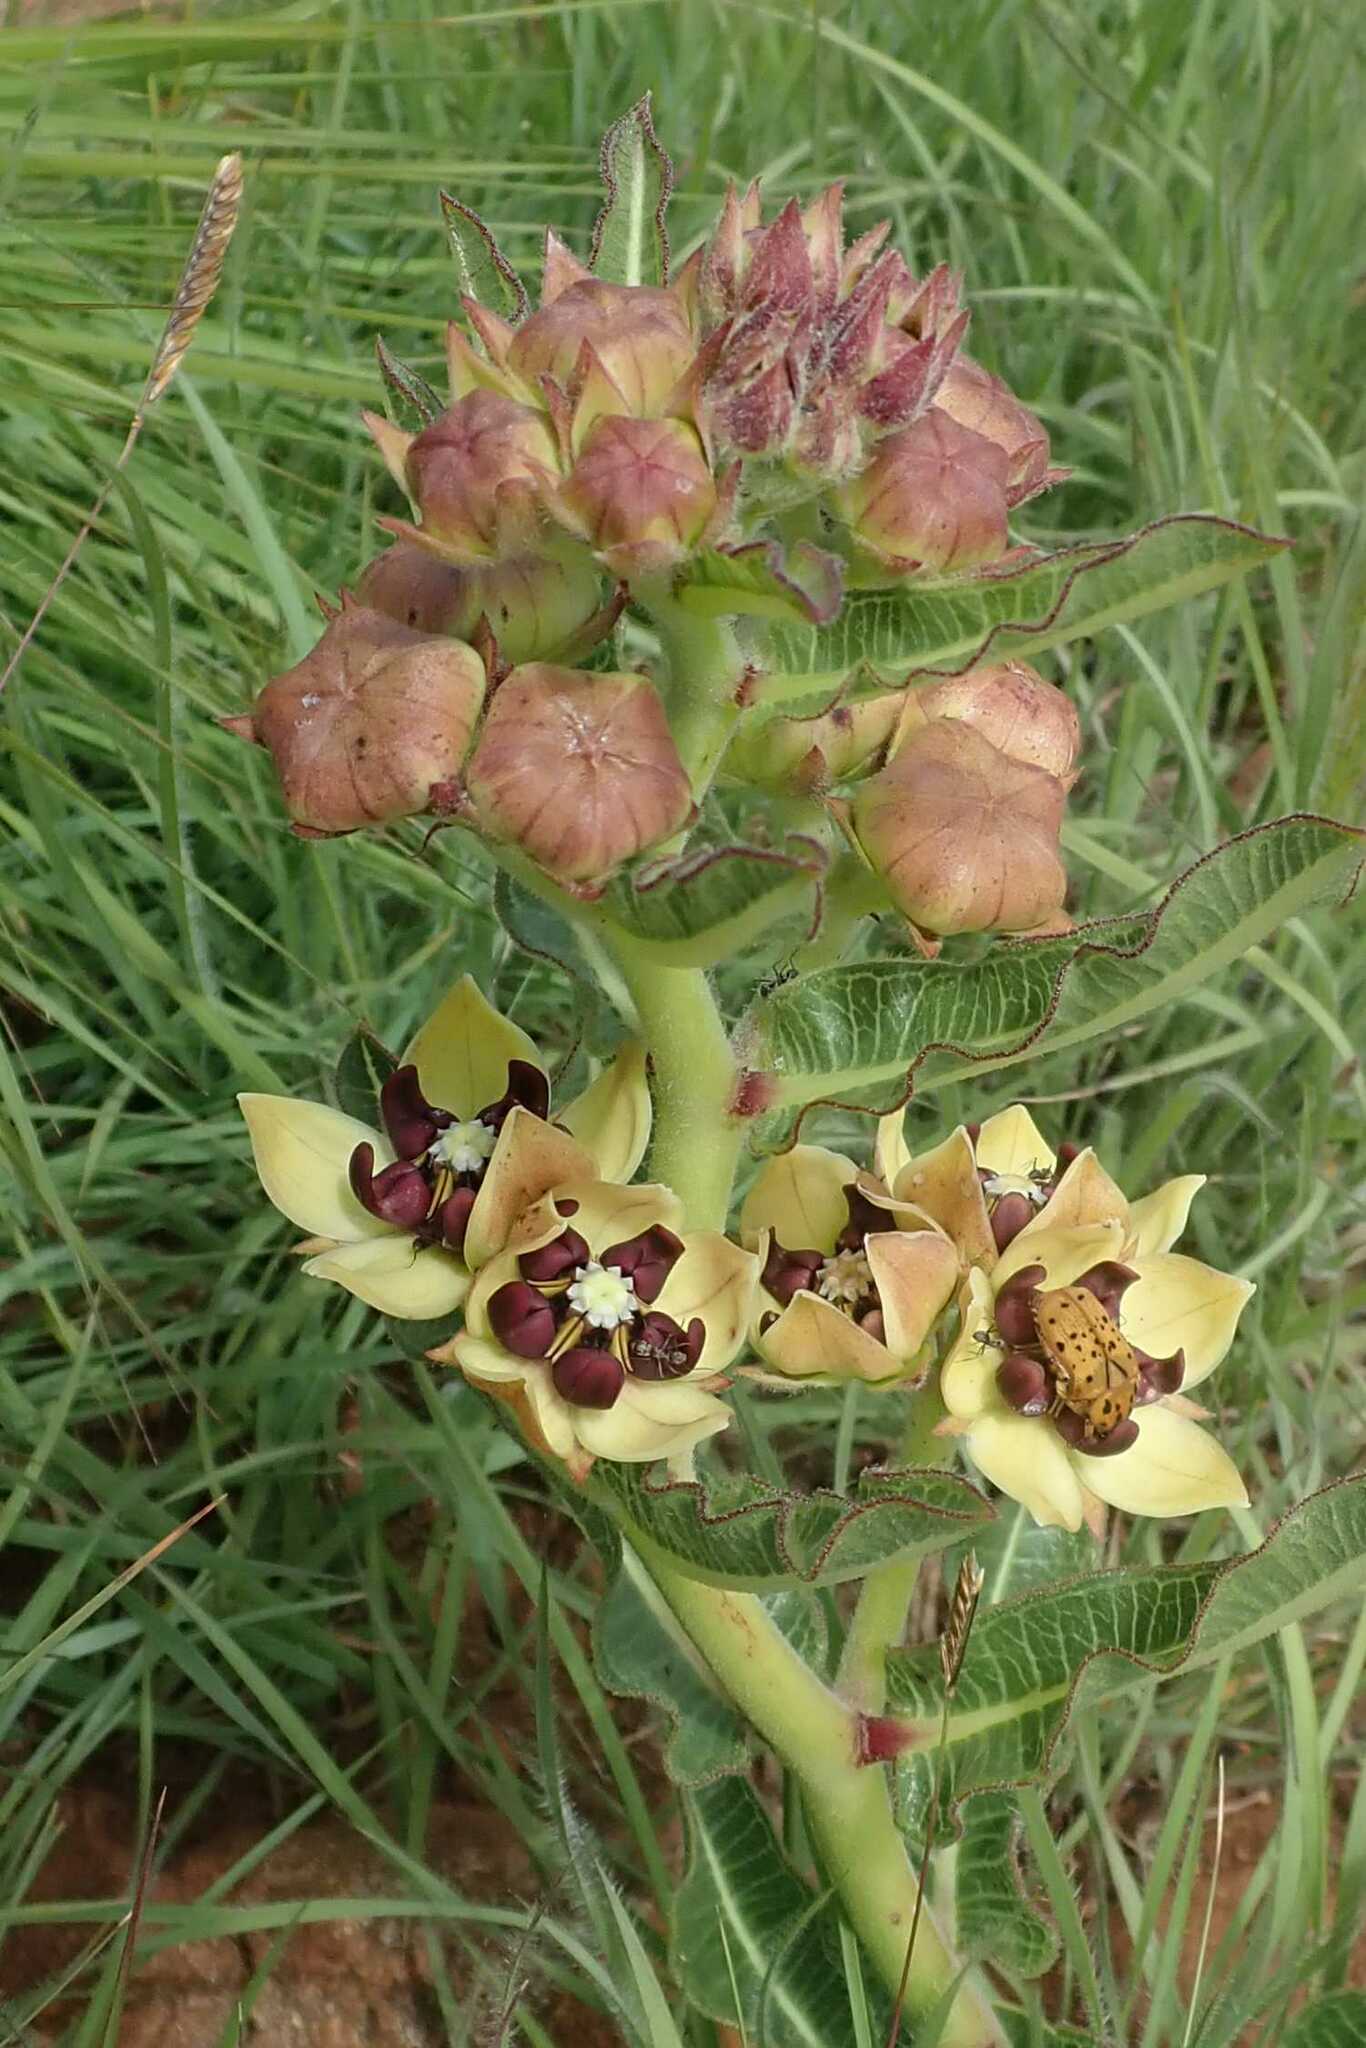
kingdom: Plantae
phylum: Tracheophyta
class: Magnoliopsida
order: Gentianales
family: Apocynaceae
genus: Pachycarpus
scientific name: Pachycarpus concolor
